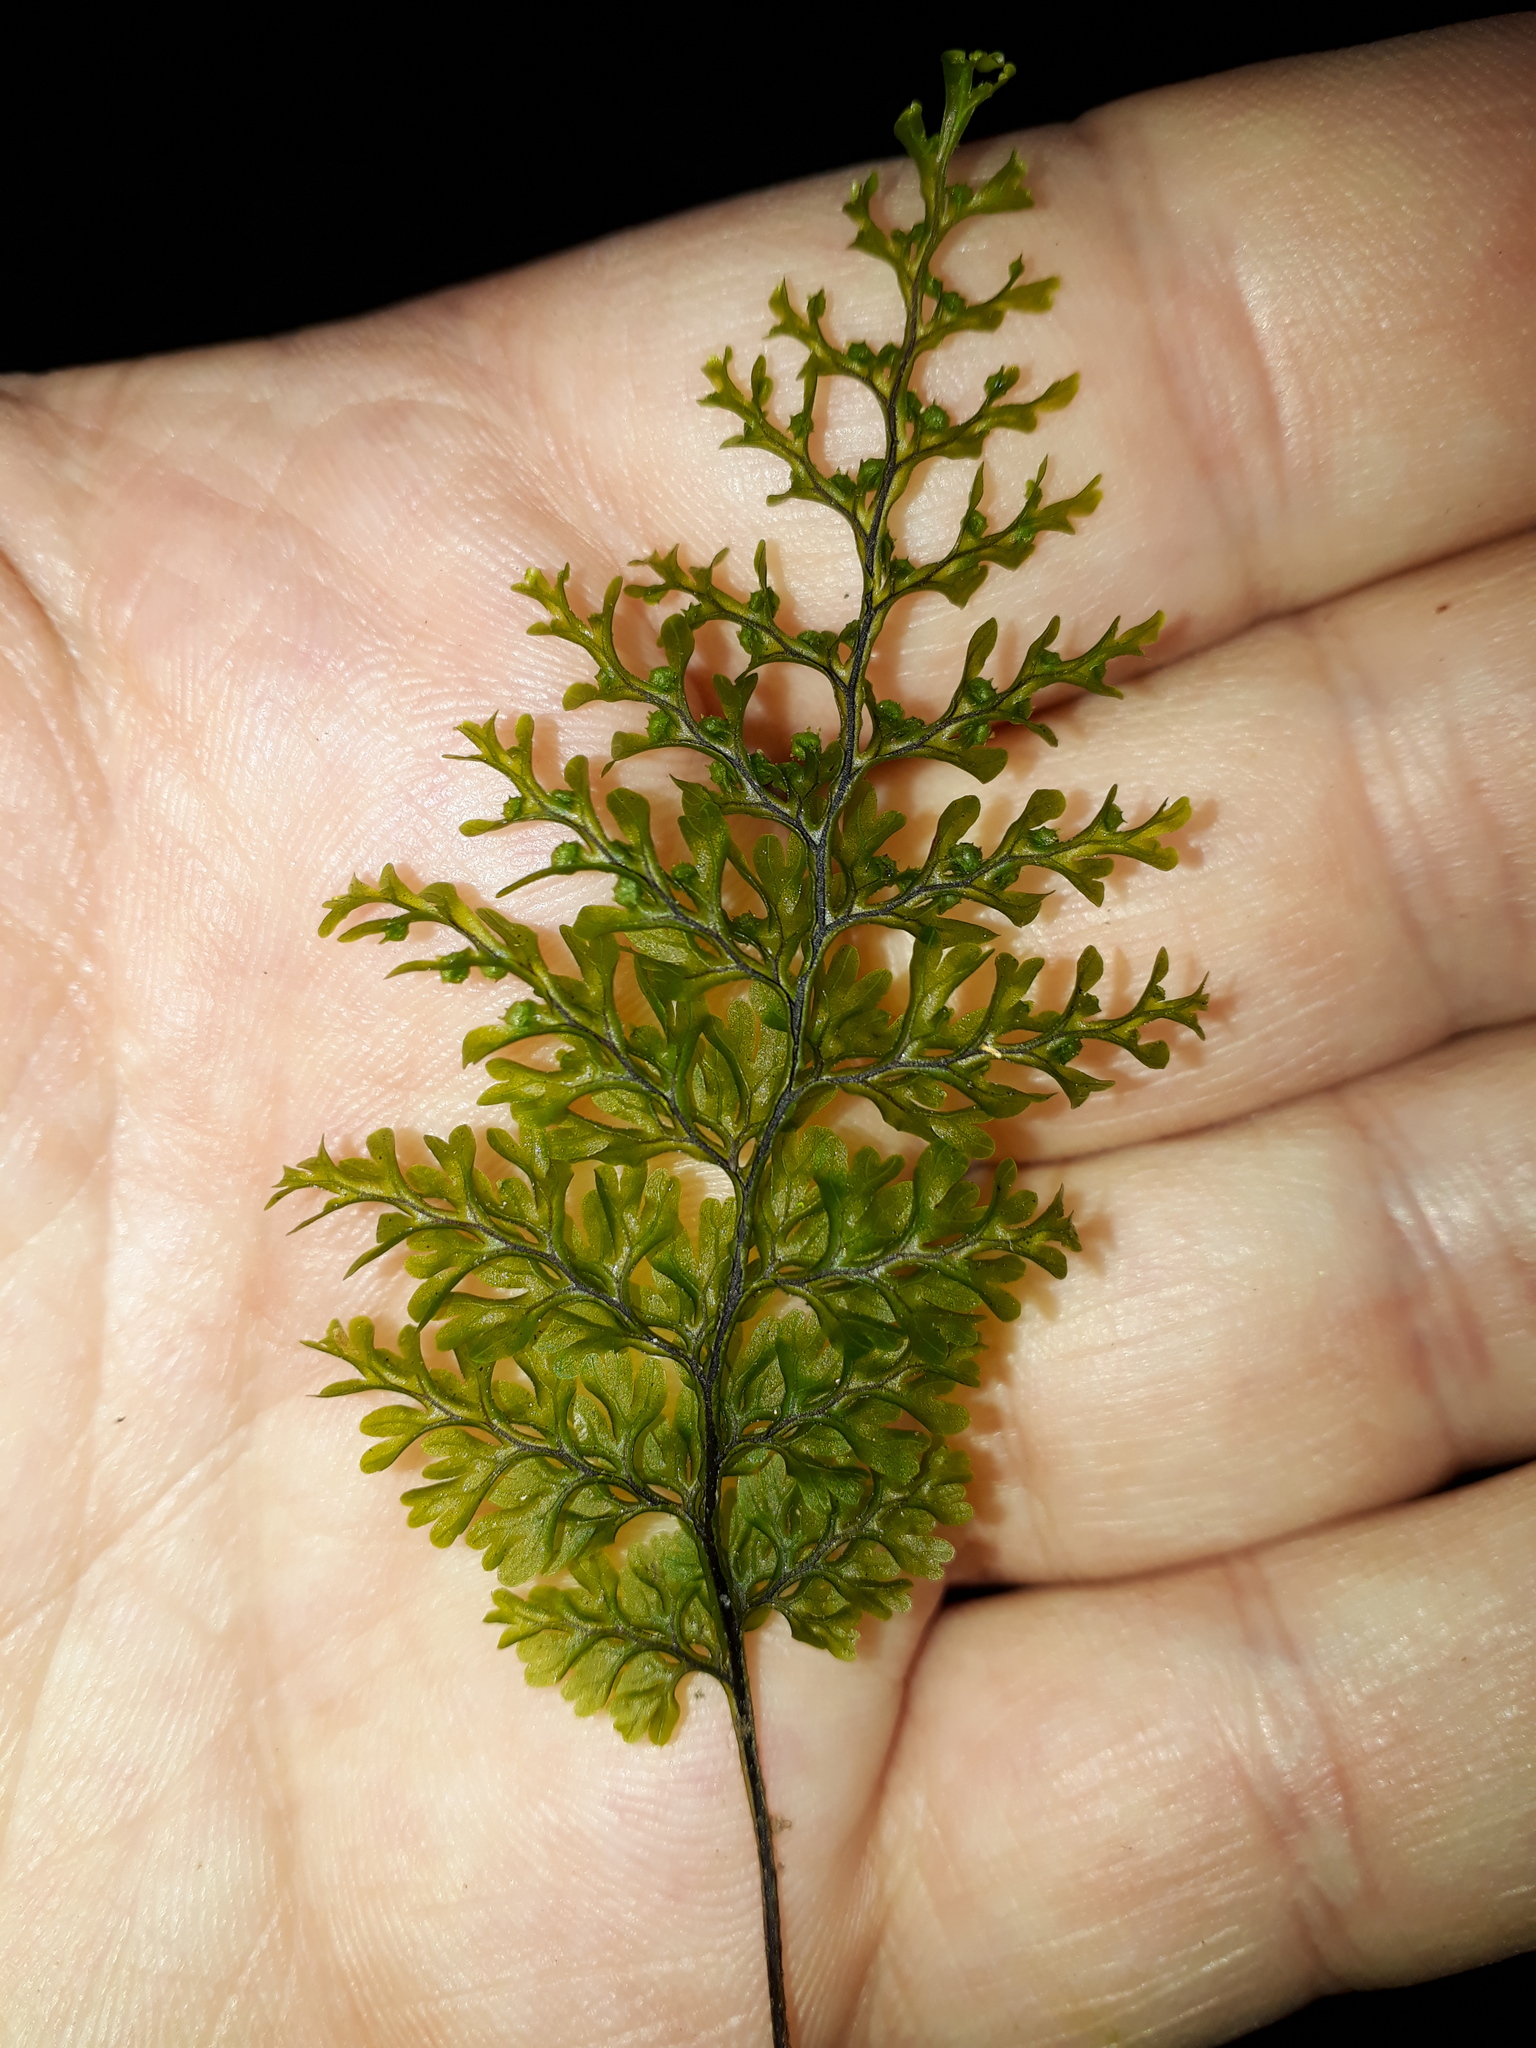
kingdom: Plantae
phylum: Tracheophyta
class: Polypodiopsida
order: Hymenophyllales
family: Hymenophyllaceae
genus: Hymenophyllum
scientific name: Hymenophyllum sanguinolentum
